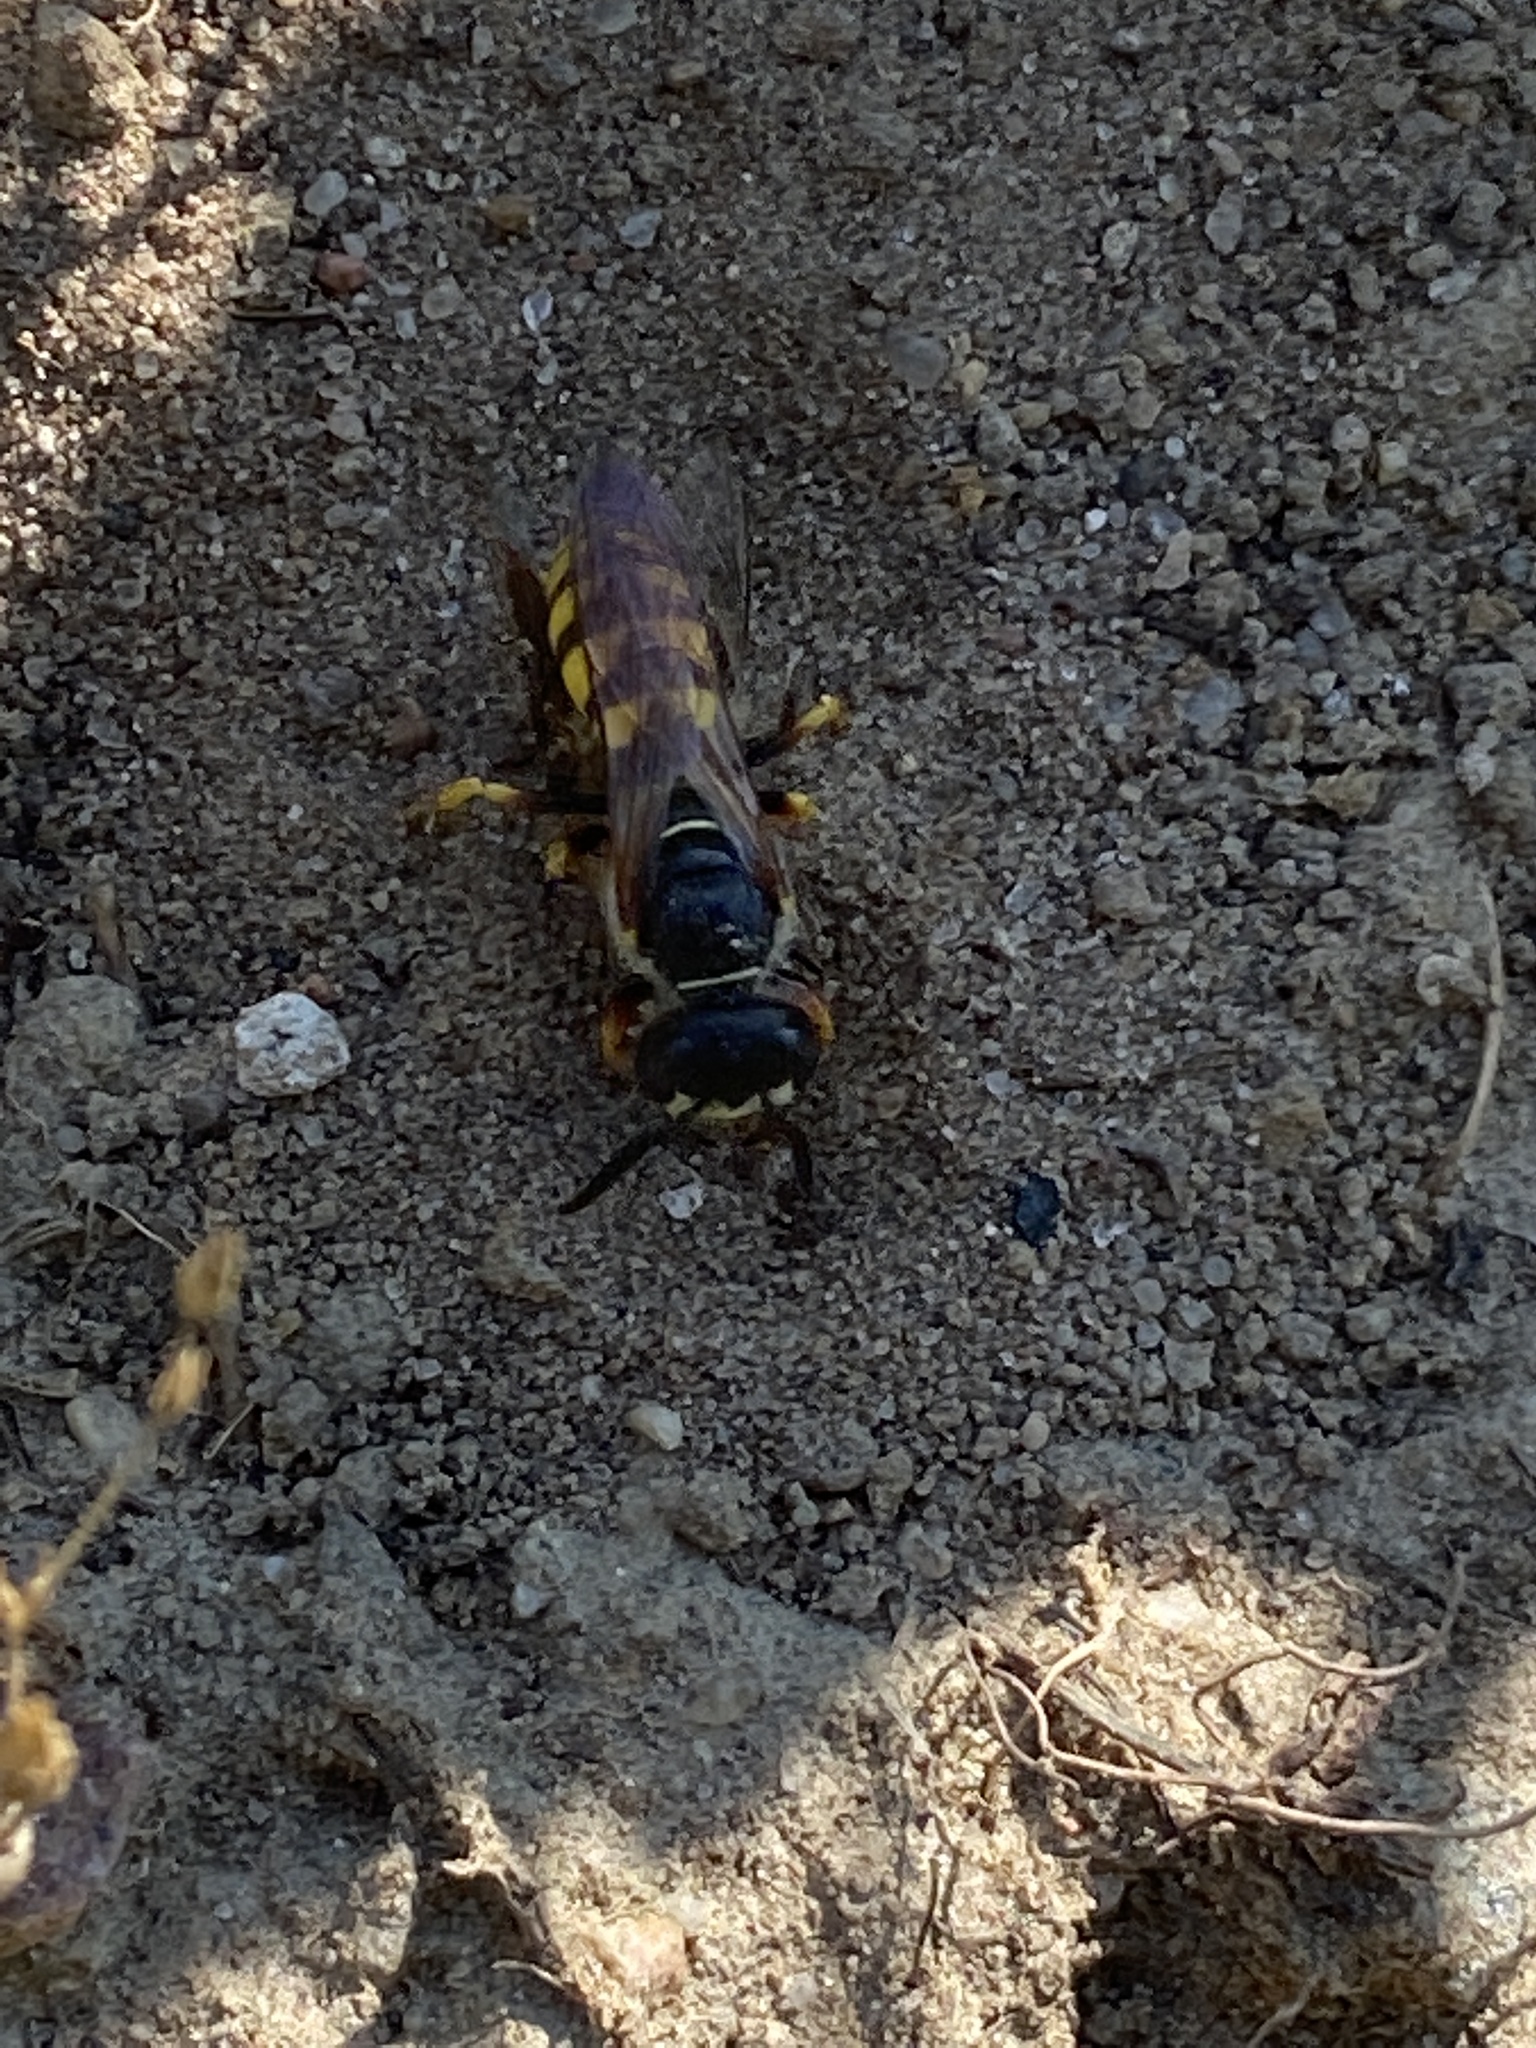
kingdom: Animalia
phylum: Arthropoda
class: Insecta
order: Hymenoptera
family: Crabronidae
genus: Philanthus
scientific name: Philanthus triangulum
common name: Bee wolf
